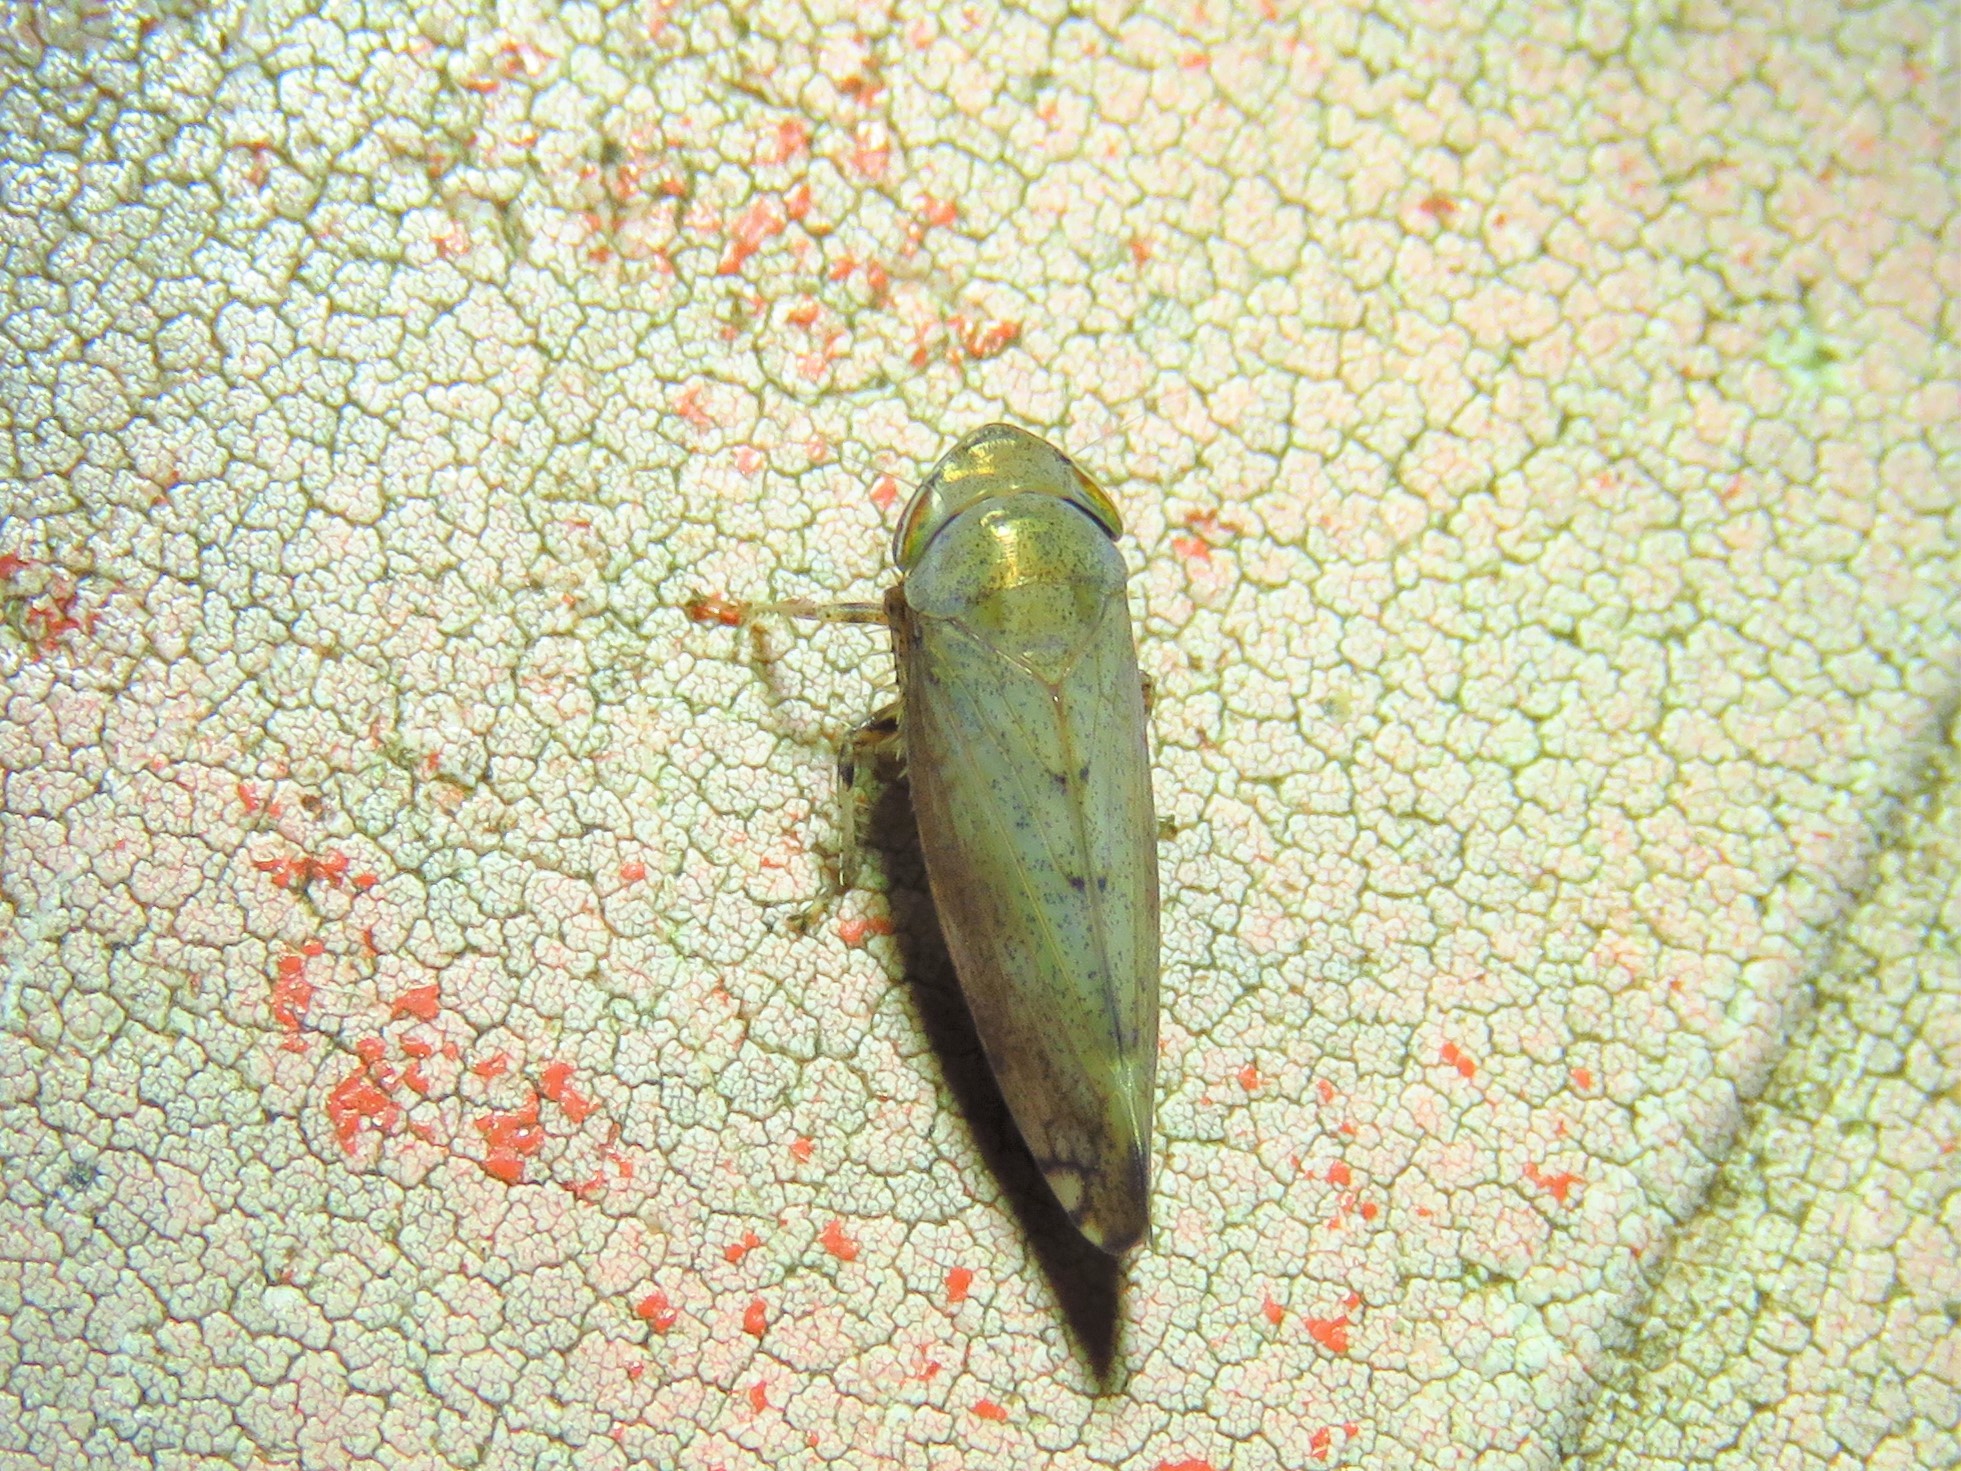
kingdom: Animalia
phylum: Arthropoda
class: Insecta
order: Hemiptera
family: Cicadellidae
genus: Fieberiella
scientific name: Fieberiella florii
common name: Flor’s leafhopper
